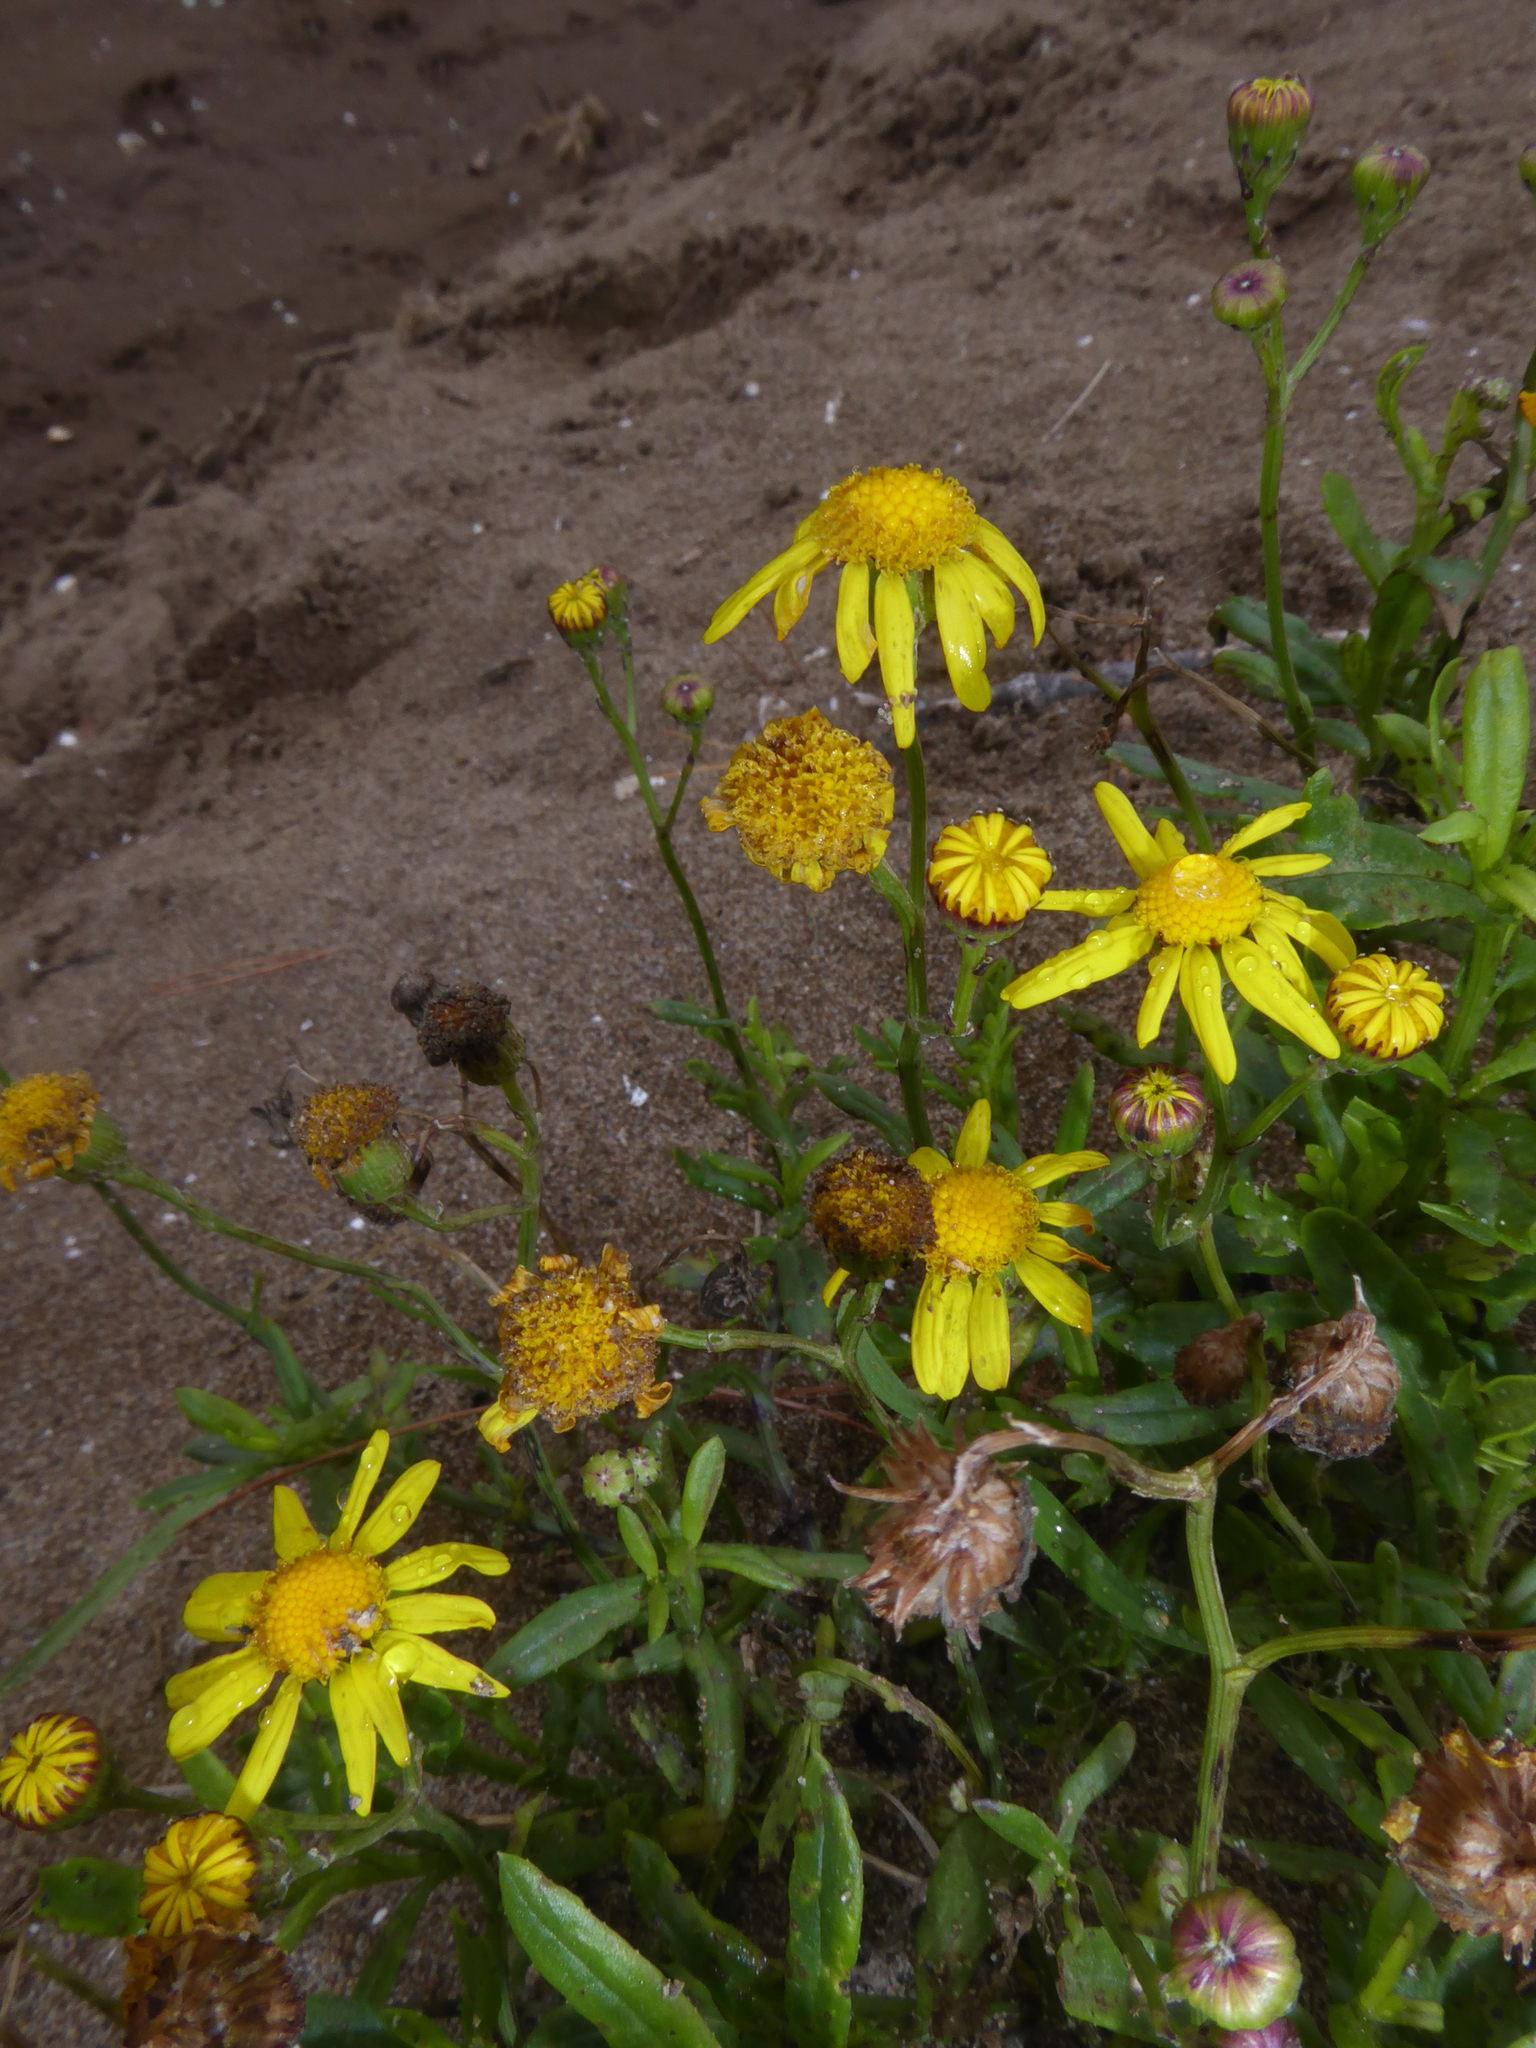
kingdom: Plantae
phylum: Tracheophyta
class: Magnoliopsida
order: Asterales
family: Asteraceae
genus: Senecio
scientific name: Senecio skirrhodon
